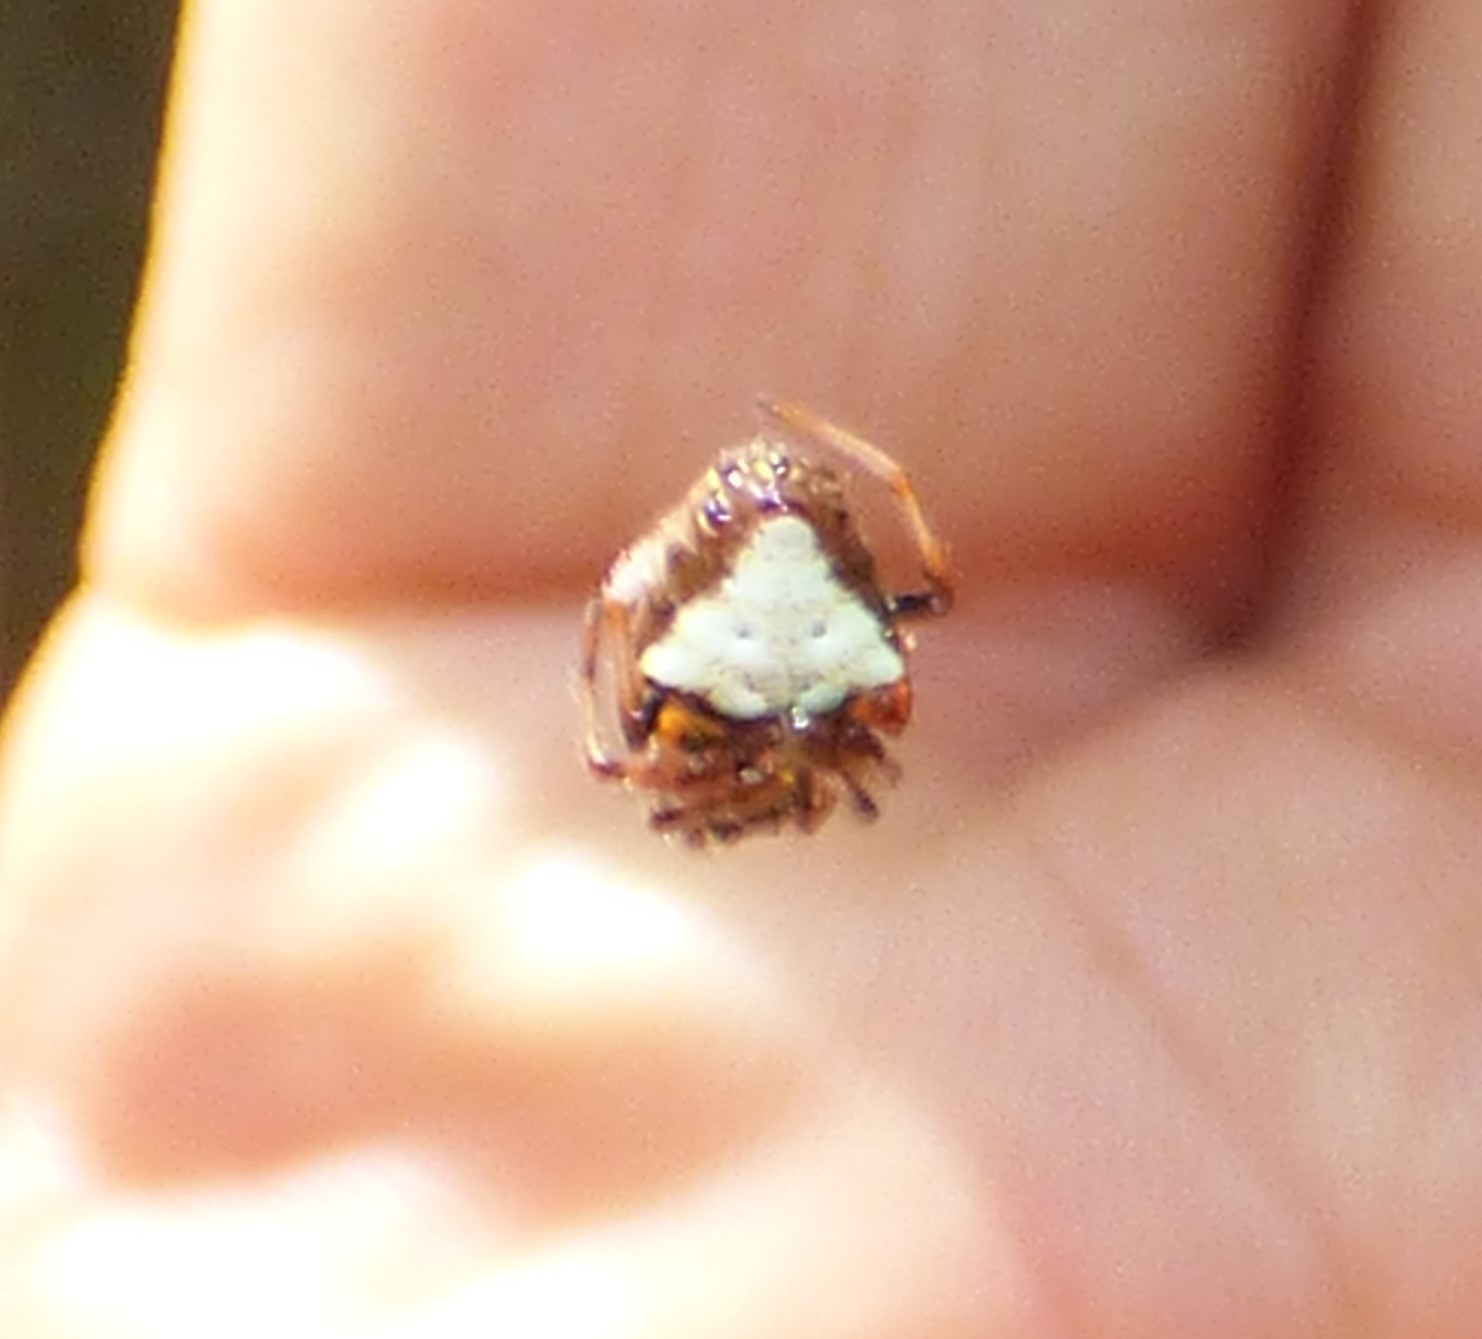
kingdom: Animalia
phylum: Arthropoda
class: Arachnida
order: Araneae
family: Araneidae
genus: Verrucosa
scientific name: Verrucosa arenata
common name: Orb weavers
